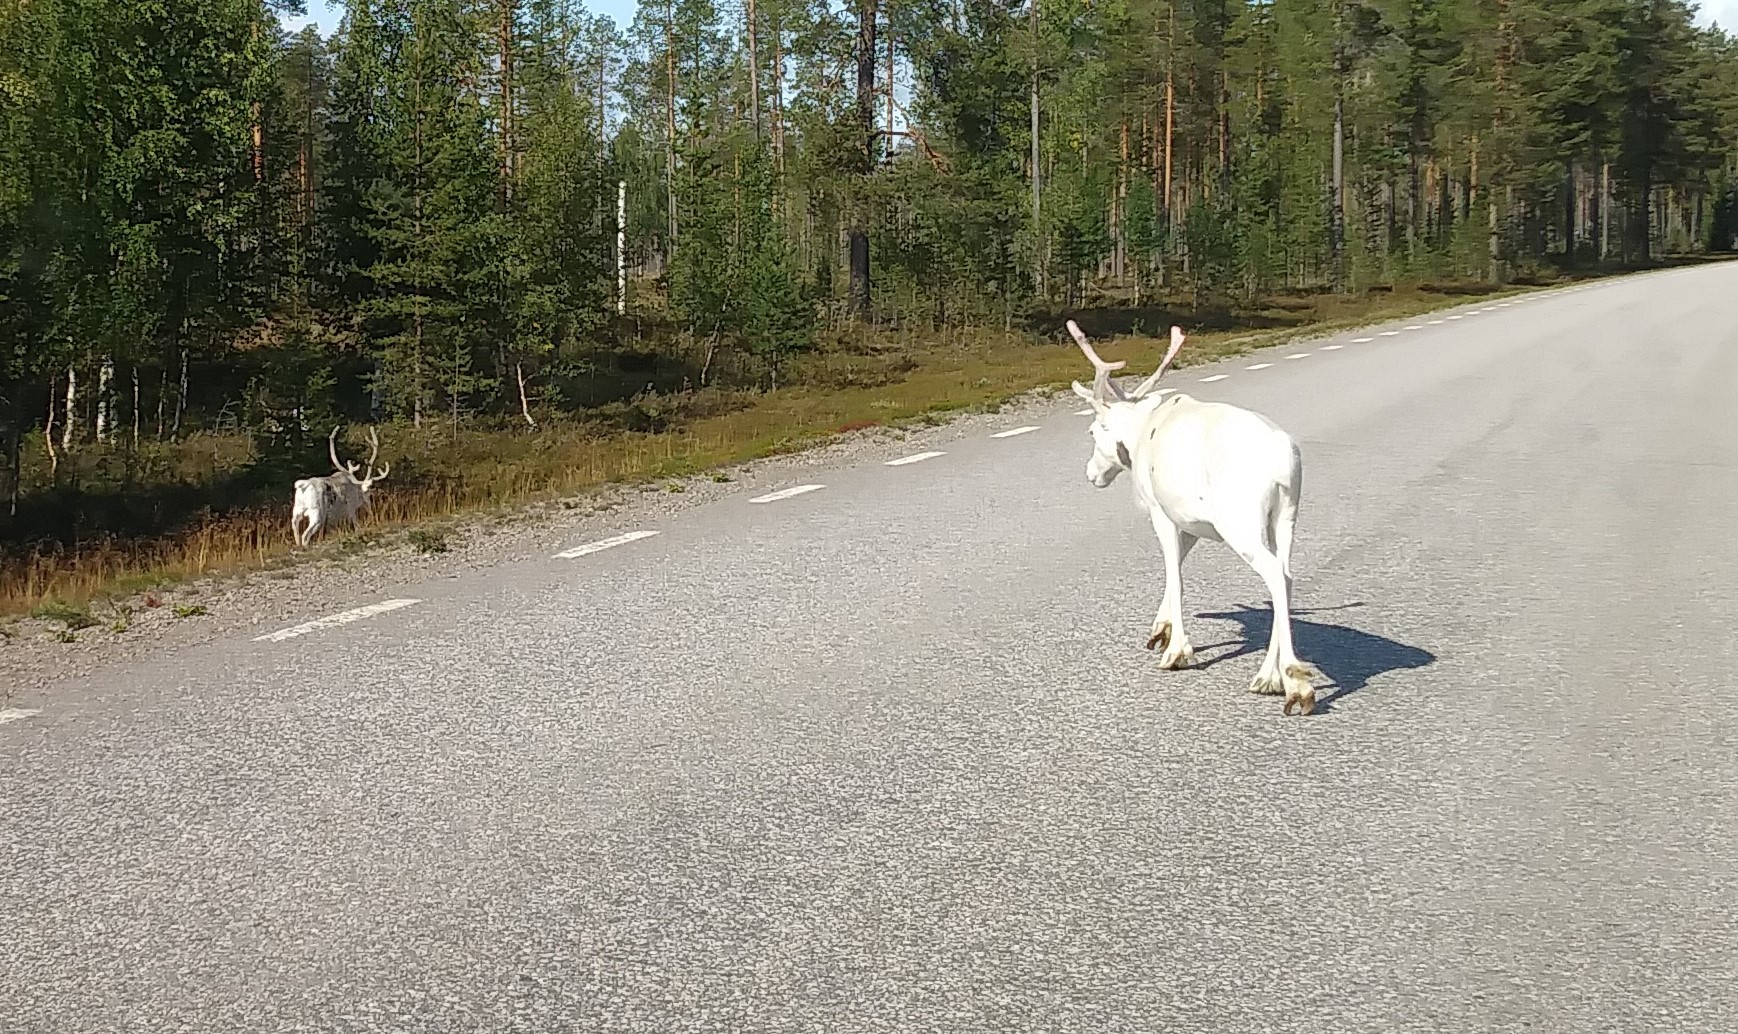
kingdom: Animalia
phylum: Chordata
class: Mammalia
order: Artiodactyla
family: Cervidae
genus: Rangifer
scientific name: Rangifer tarandus
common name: Reindeer
